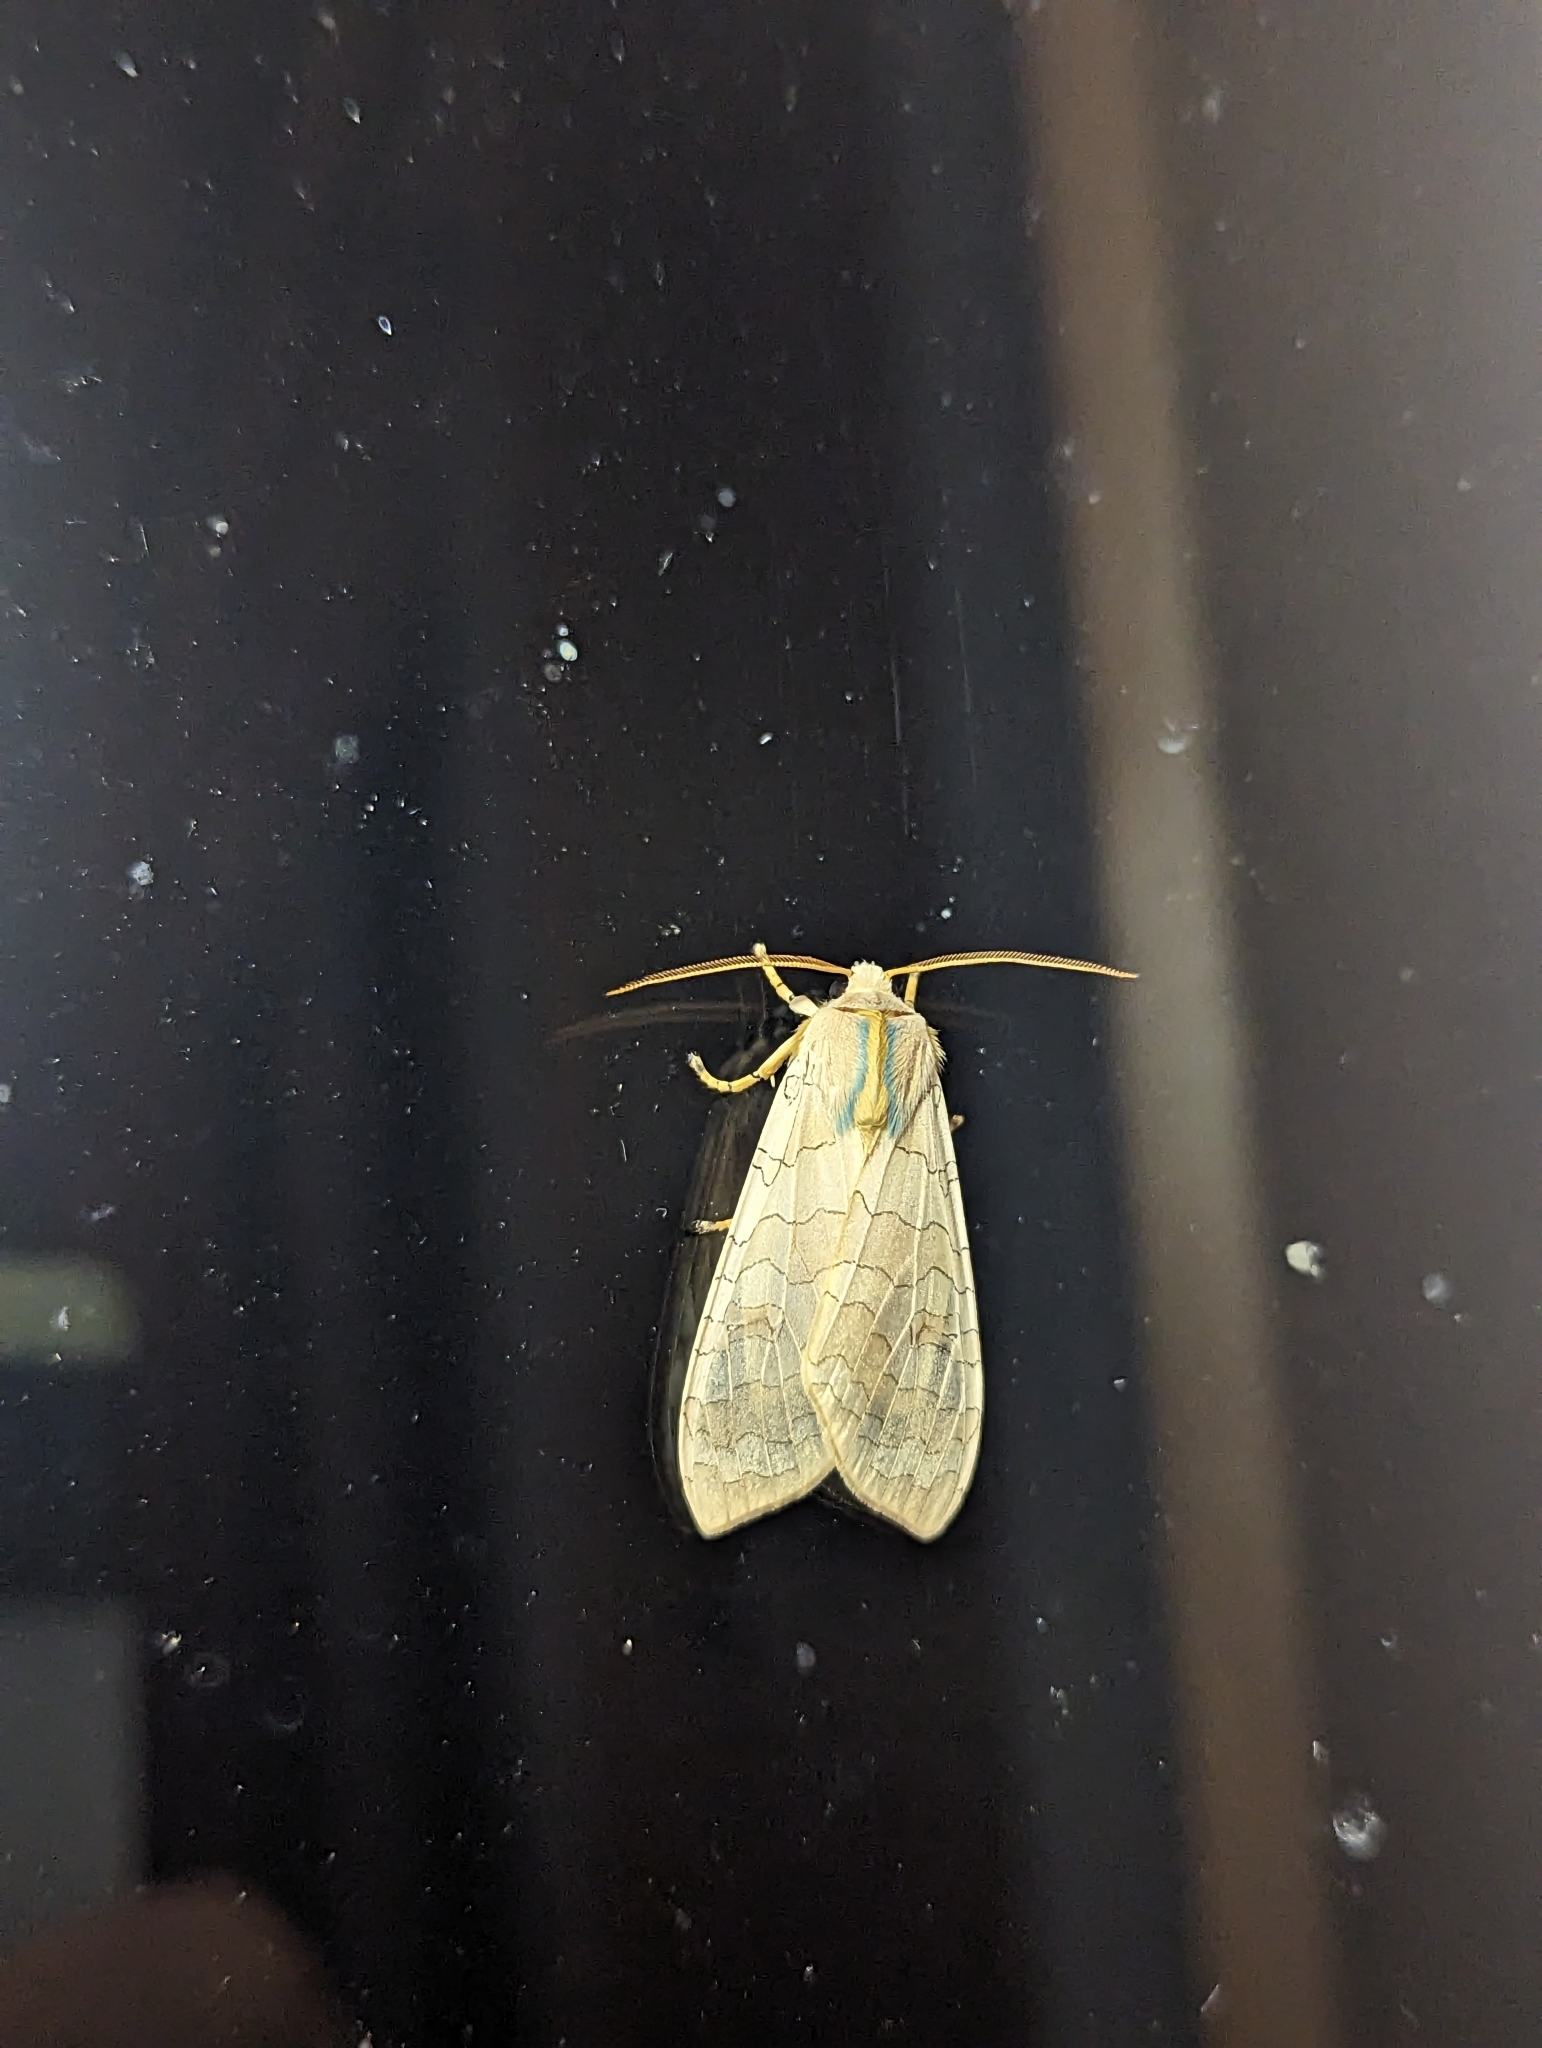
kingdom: Animalia
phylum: Arthropoda
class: Insecta
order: Lepidoptera
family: Erebidae
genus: Halysidota
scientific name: Halysidota tessellaris
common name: Banded tussock moth
